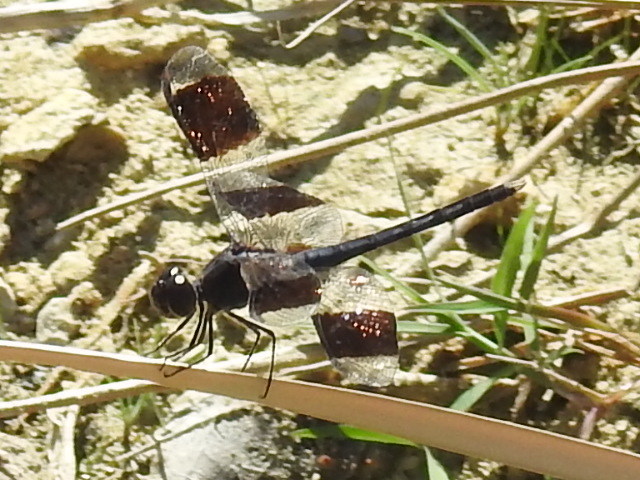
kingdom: Animalia
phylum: Arthropoda
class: Insecta
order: Odonata
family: Libellulidae
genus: Erythrodiplax
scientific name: Erythrodiplax umbrata
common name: Band-winged dragonlet
